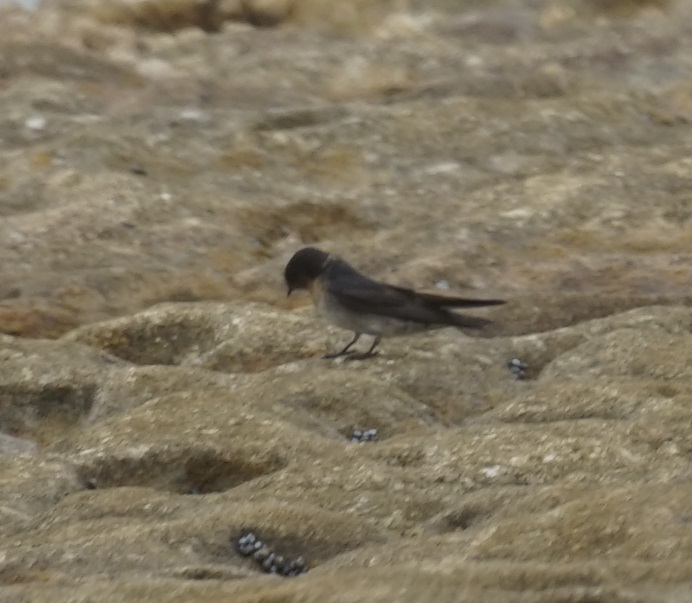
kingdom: Animalia
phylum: Chordata
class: Aves
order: Passeriformes
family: Hirundinidae
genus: Hirundo
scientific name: Hirundo neoxena
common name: Welcome swallow
